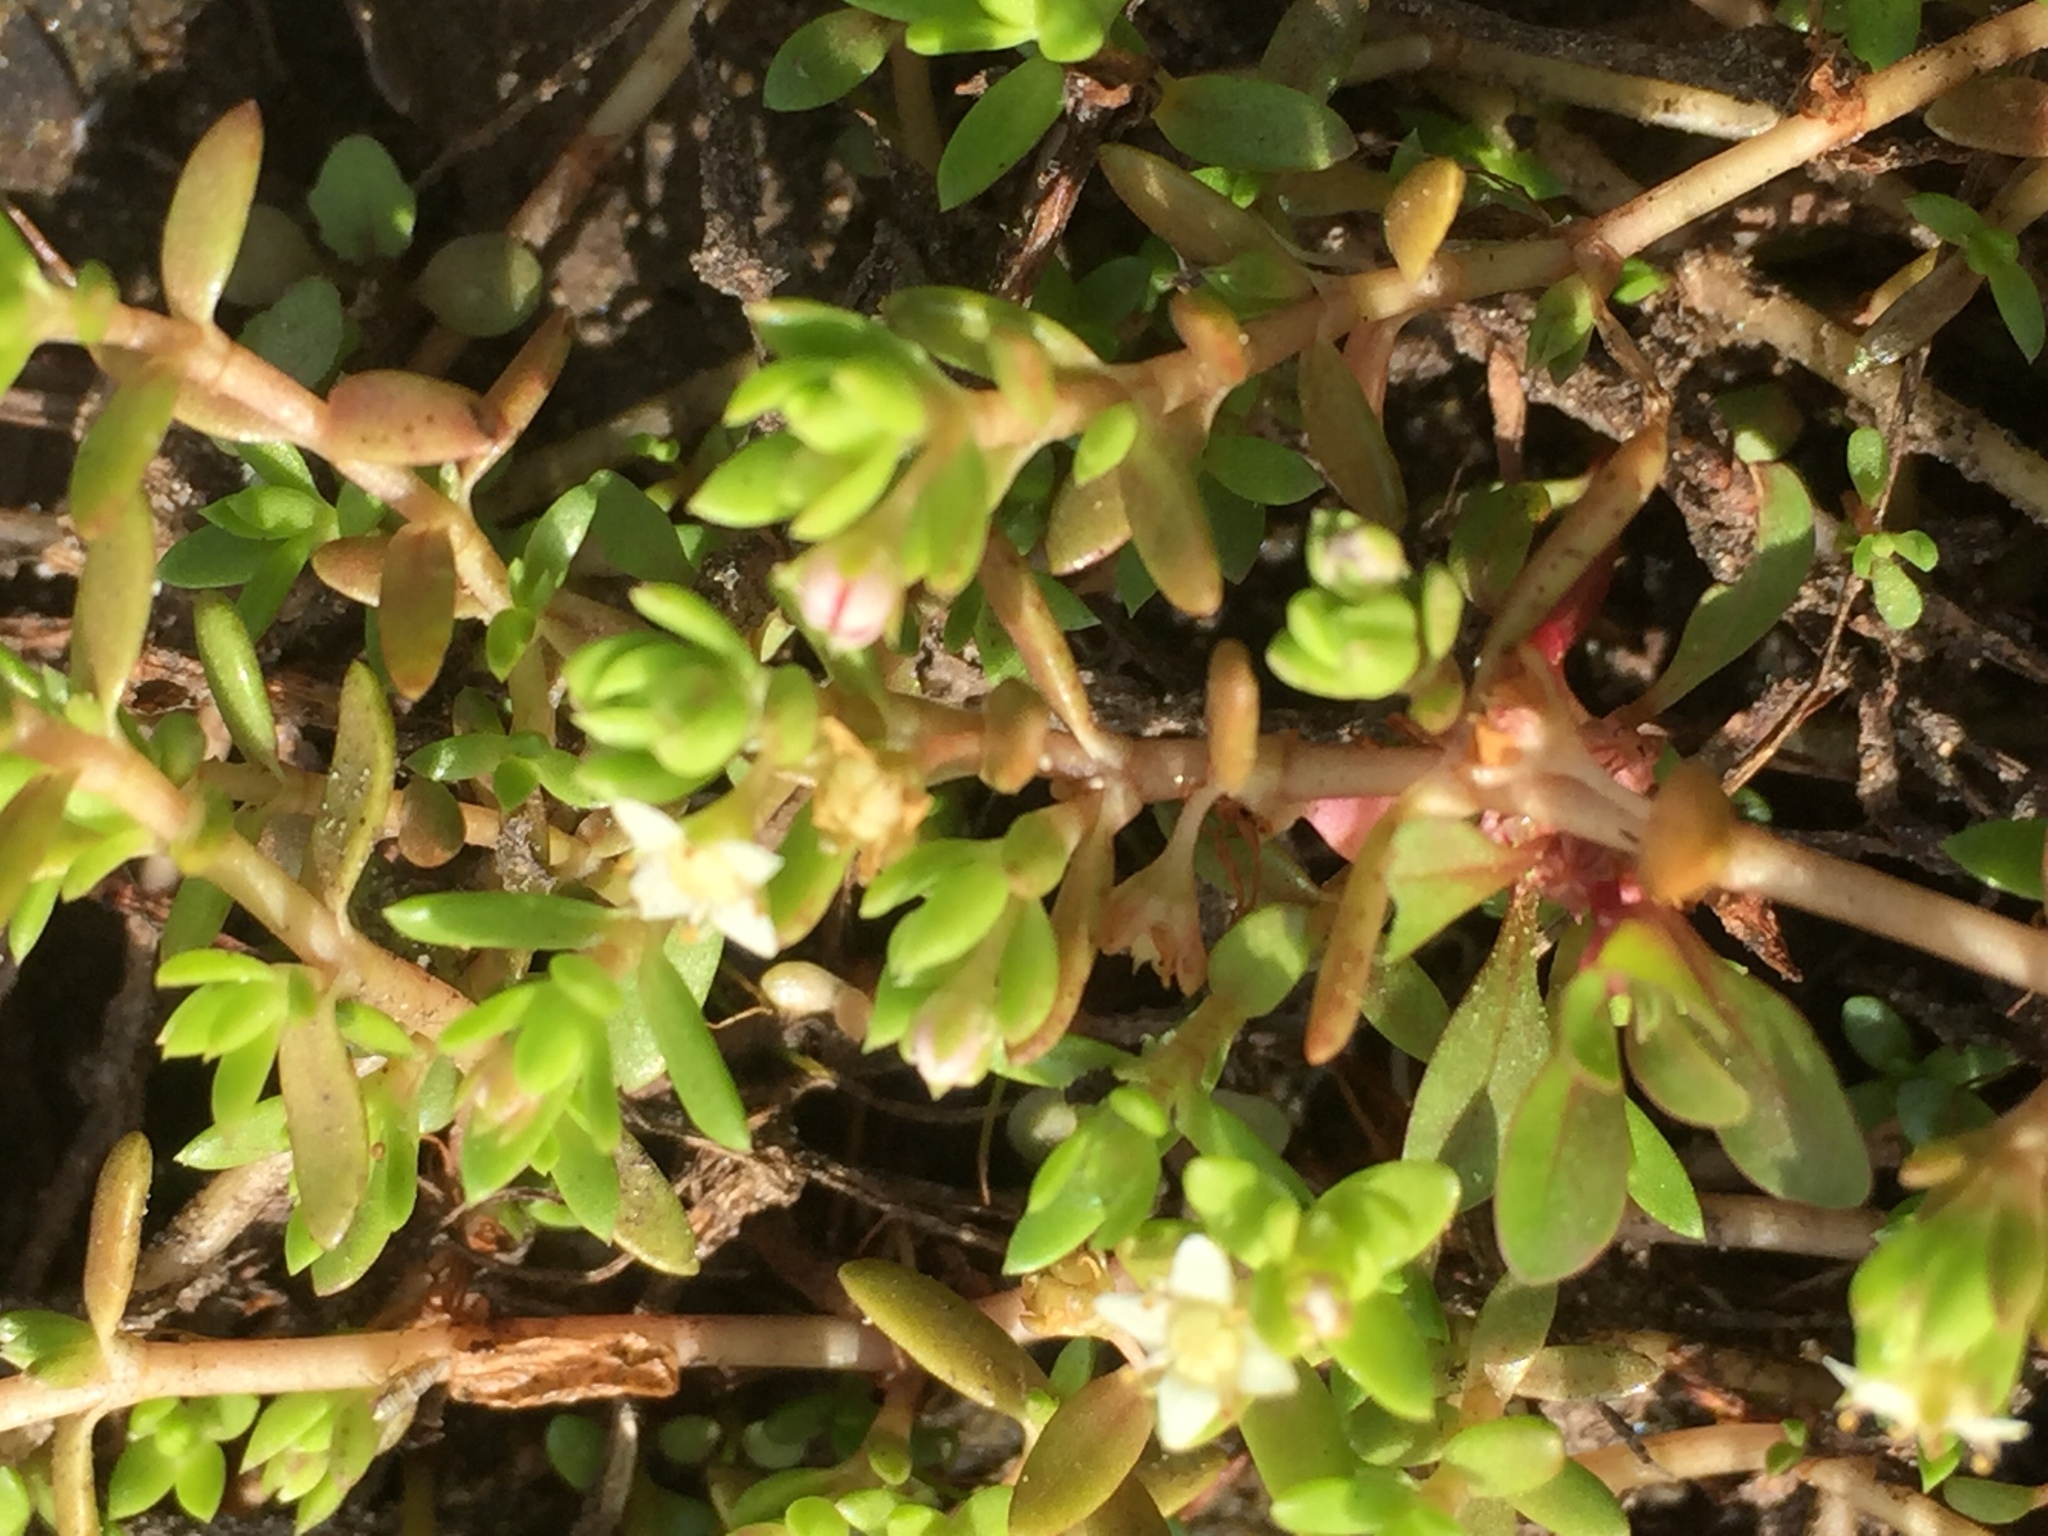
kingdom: Plantae
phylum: Tracheophyta
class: Magnoliopsida
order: Saxifragales
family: Crassulaceae
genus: Crassula
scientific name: Crassula helmsii
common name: New zealand pigmyweed
